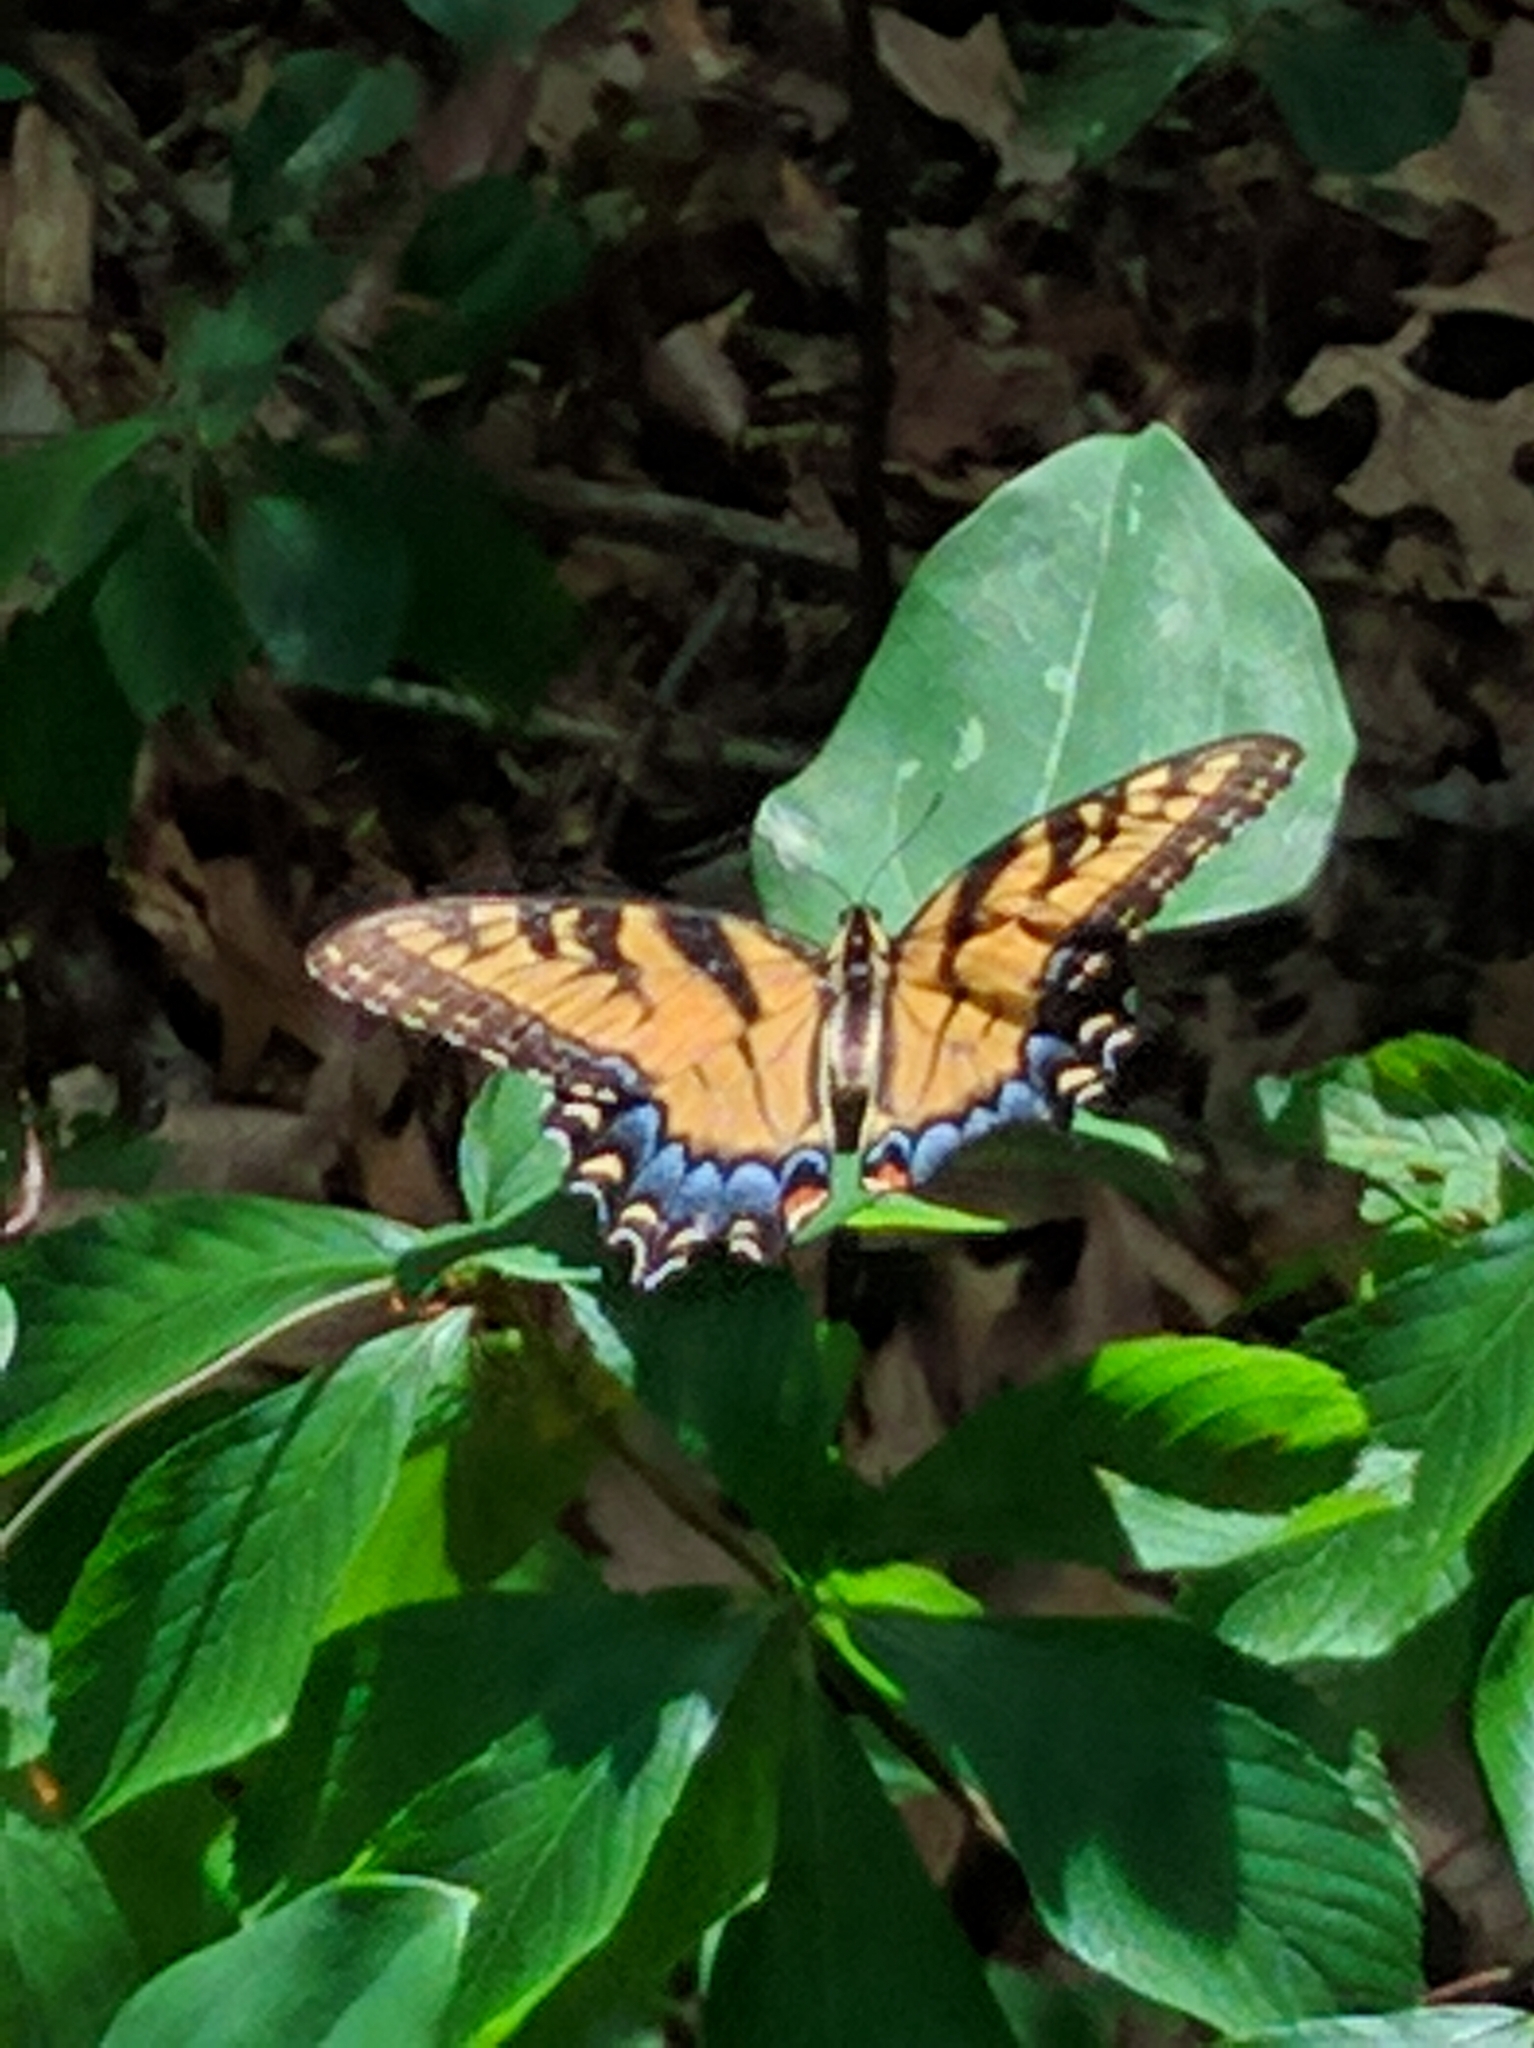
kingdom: Animalia
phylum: Arthropoda
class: Insecta
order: Lepidoptera
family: Papilionidae
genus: Papilio
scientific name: Papilio glaucus
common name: Tiger swallowtail
